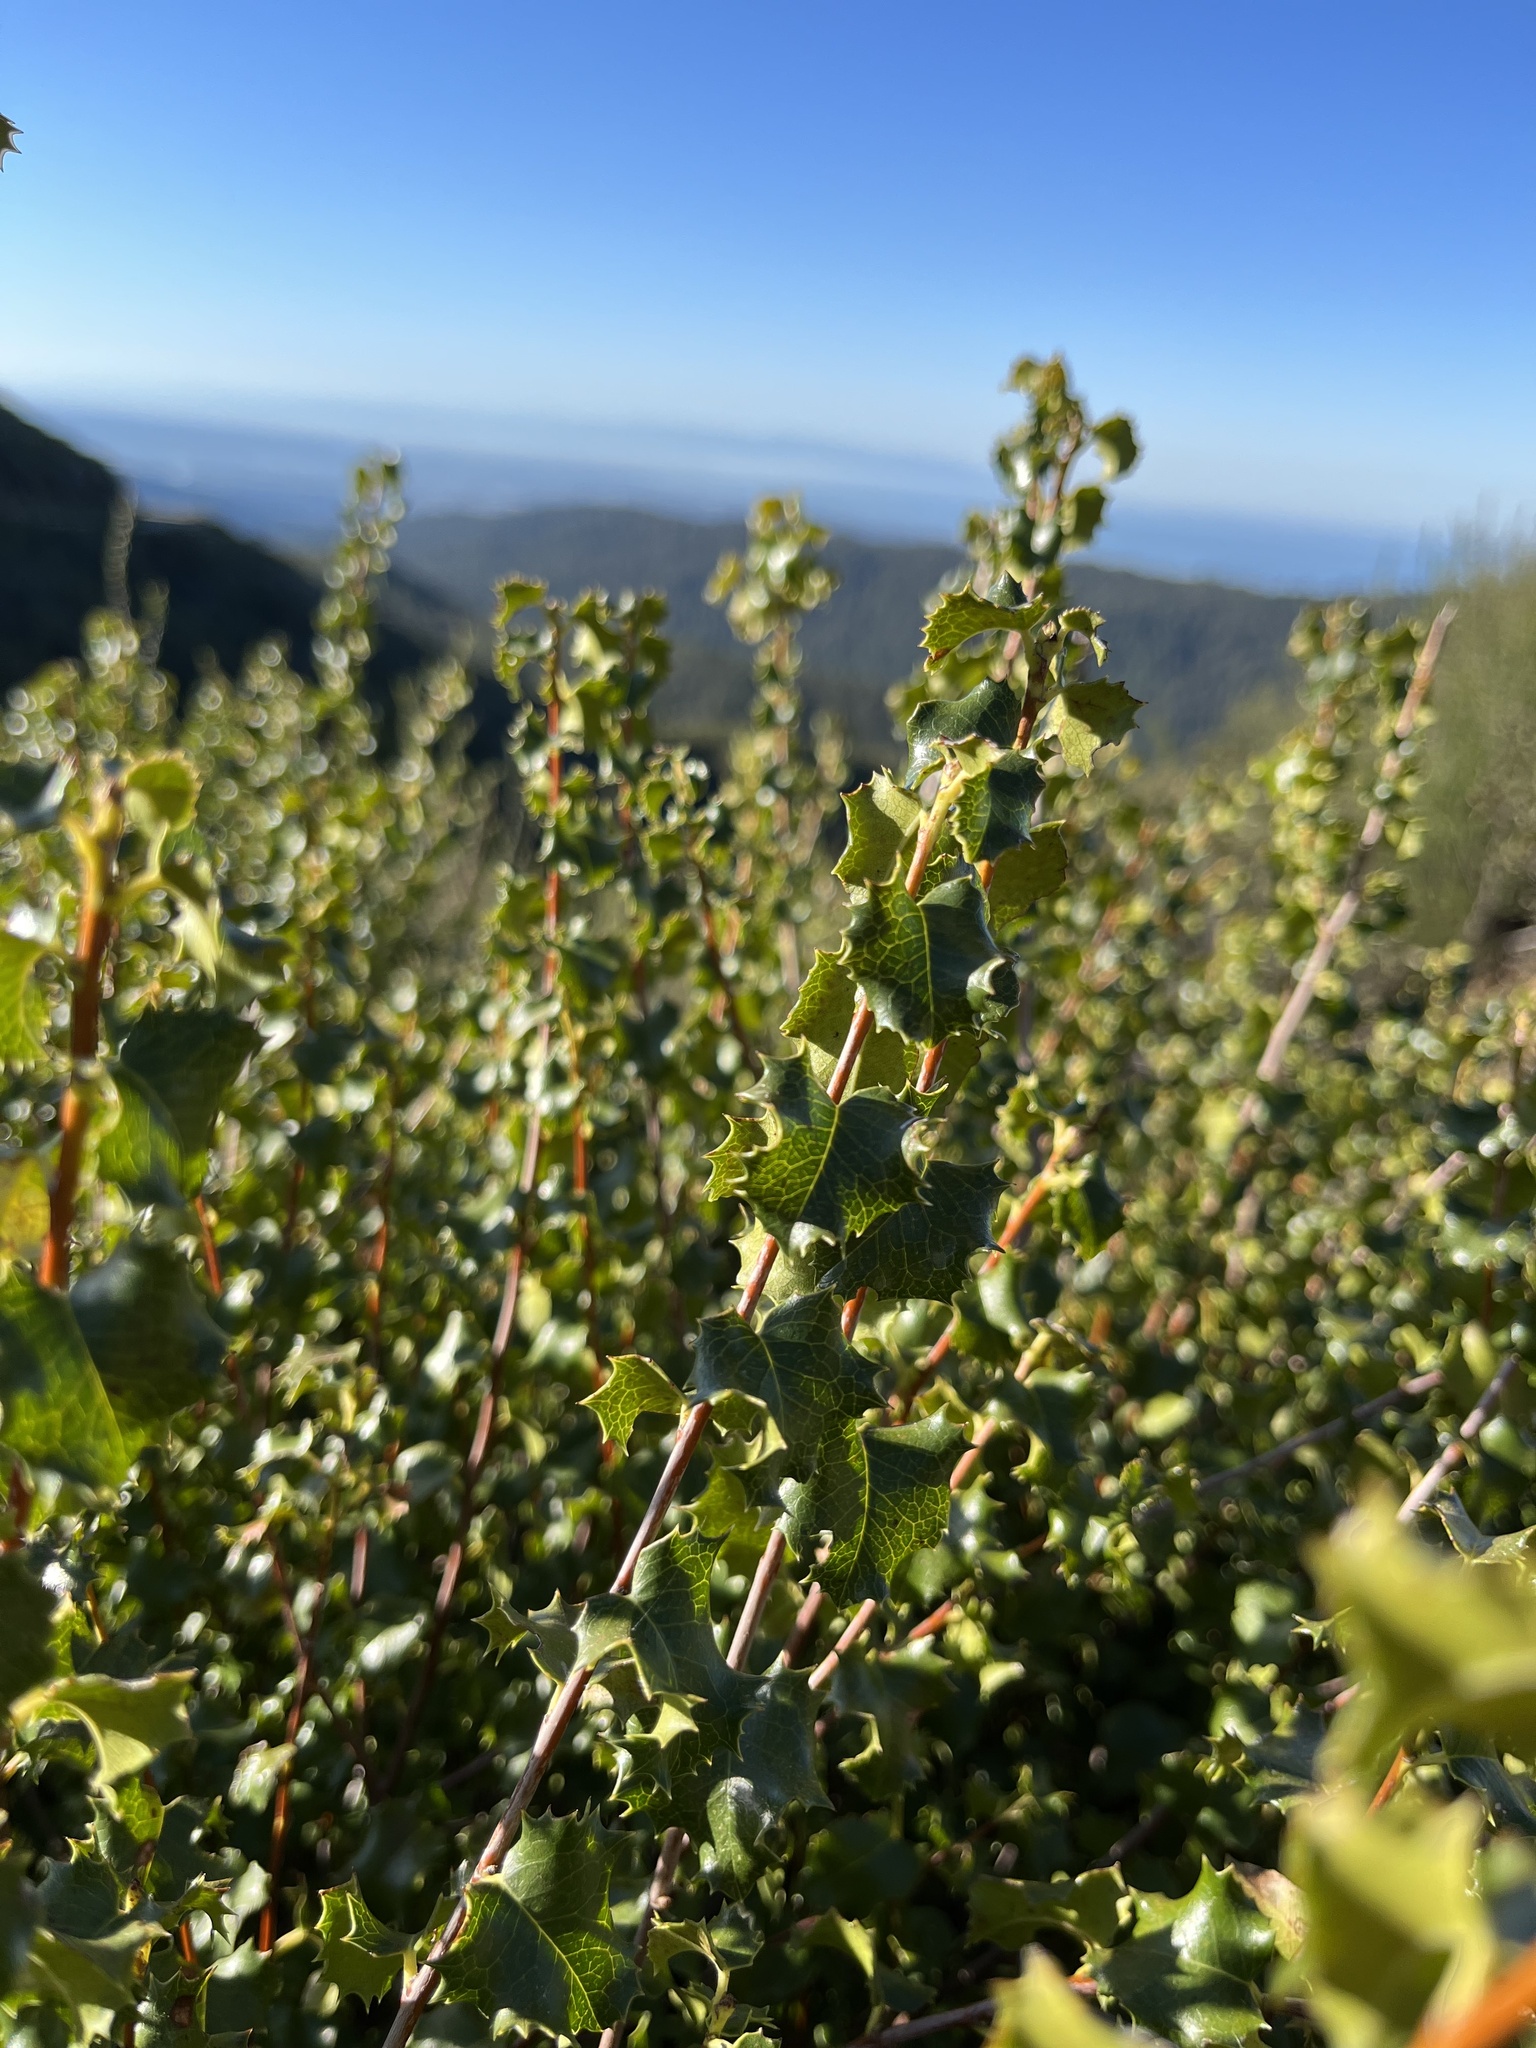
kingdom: Plantae
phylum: Tracheophyta
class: Magnoliopsida
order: Rosales
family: Rosaceae
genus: Prunus
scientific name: Prunus ilicifolia
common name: Hollyleaf cherry
